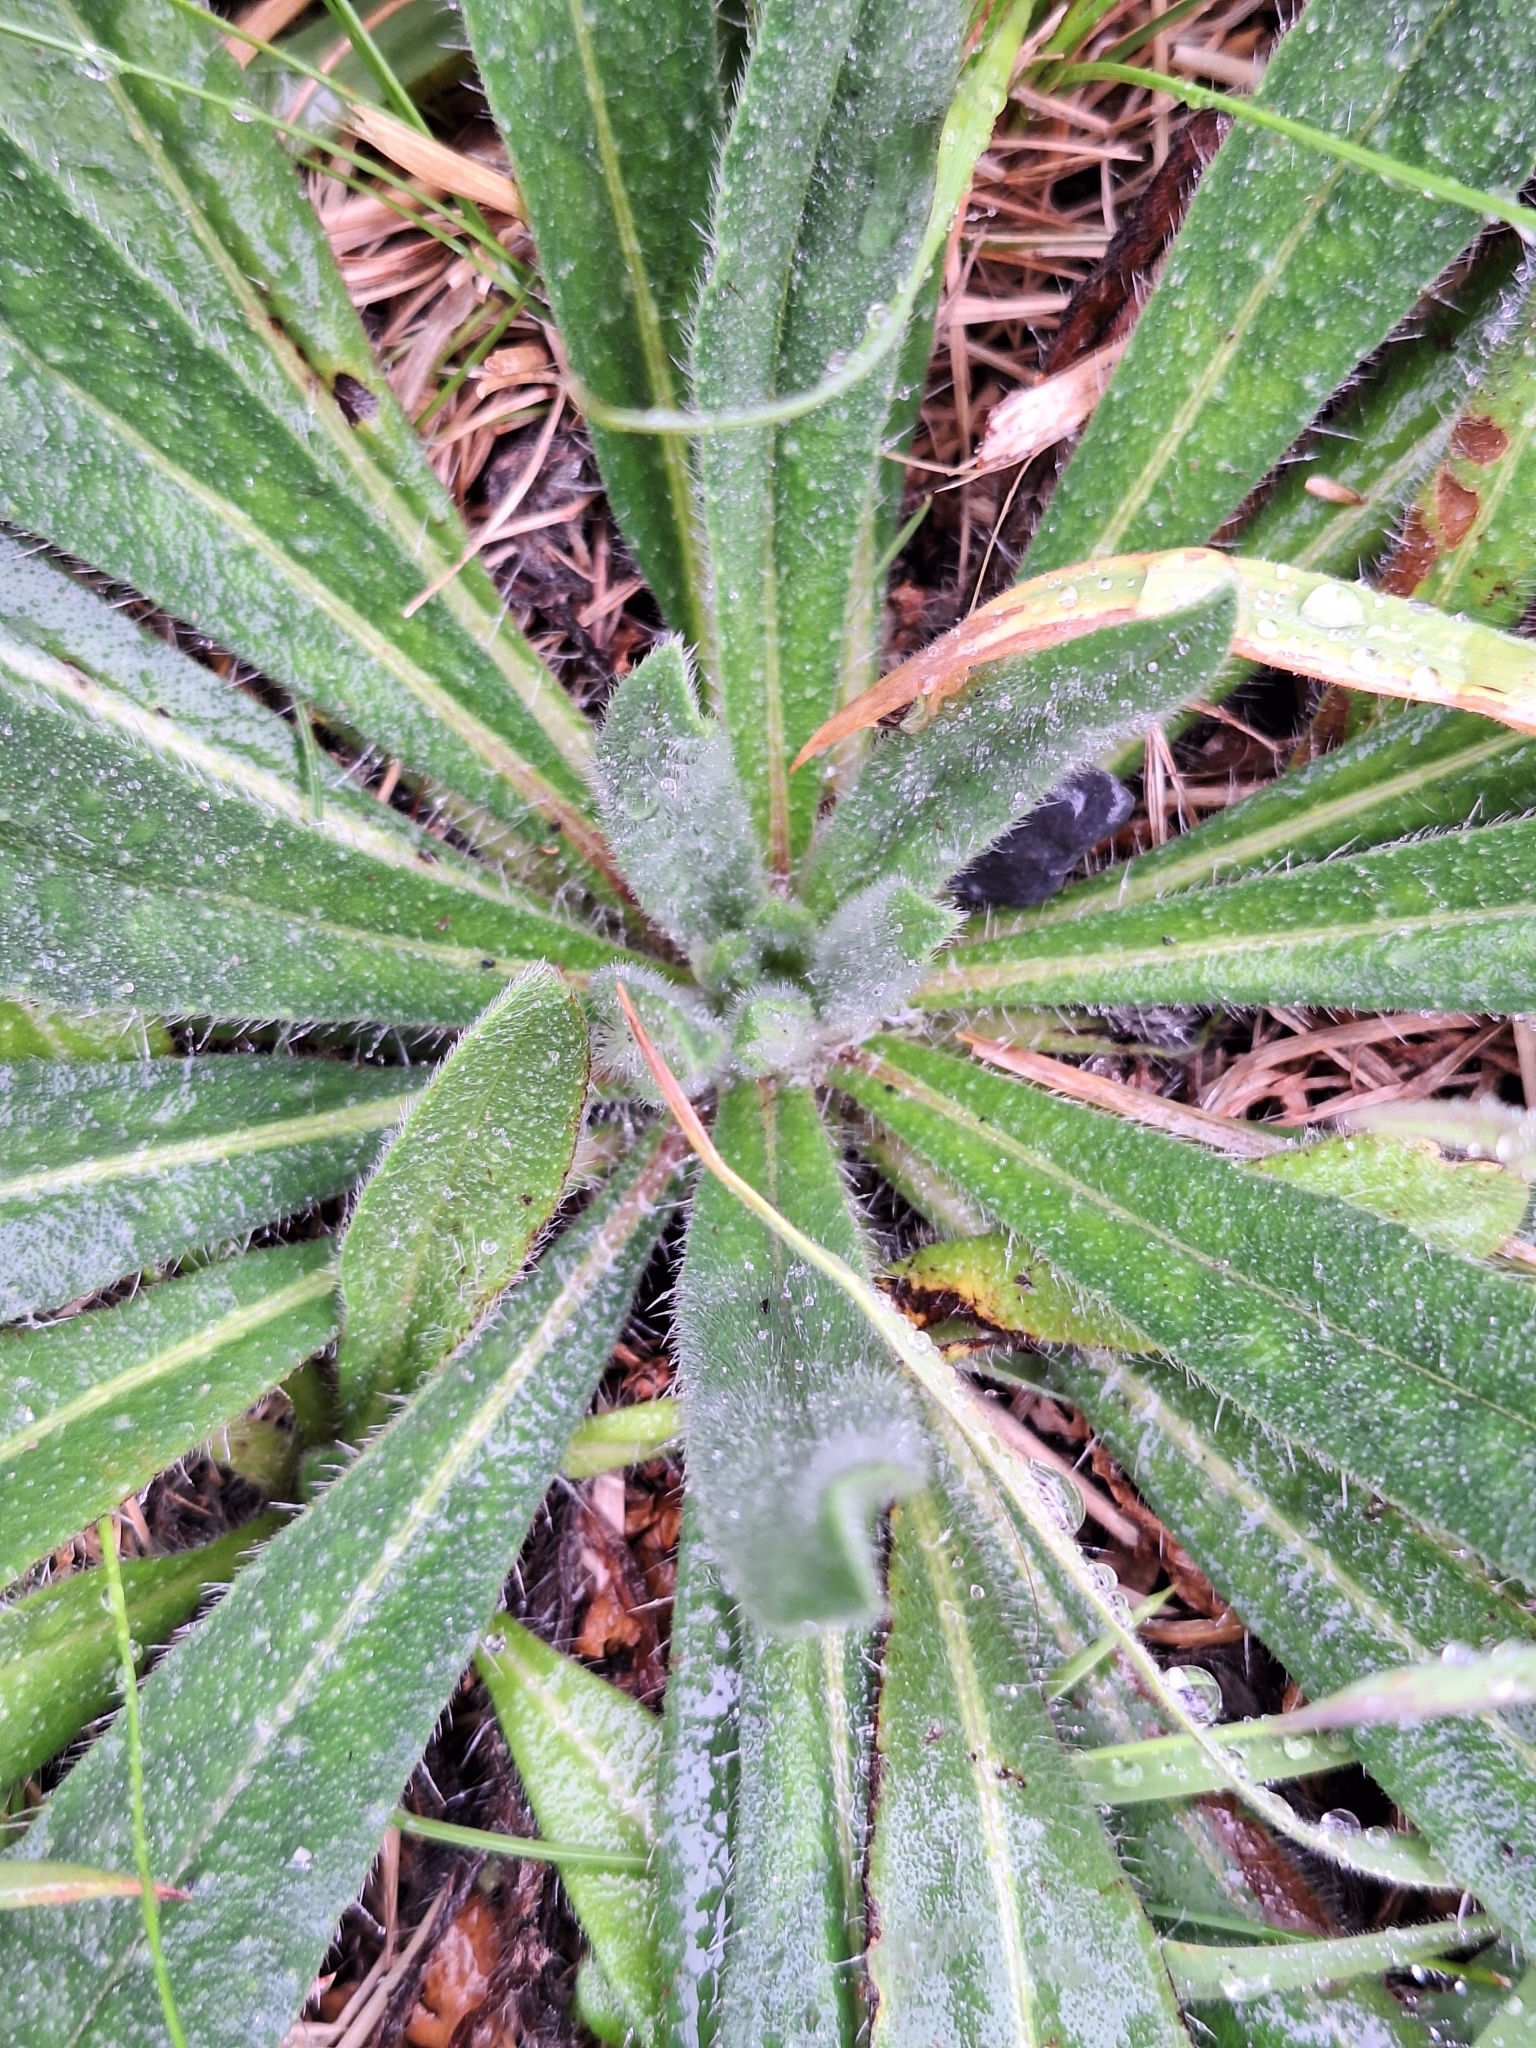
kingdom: Plantae
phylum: Tracheophyta
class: Magnoliopsida
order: Boraginales
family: Boraginaceae
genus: Echium
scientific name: Echium vulgare
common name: Common viper's bugloss
